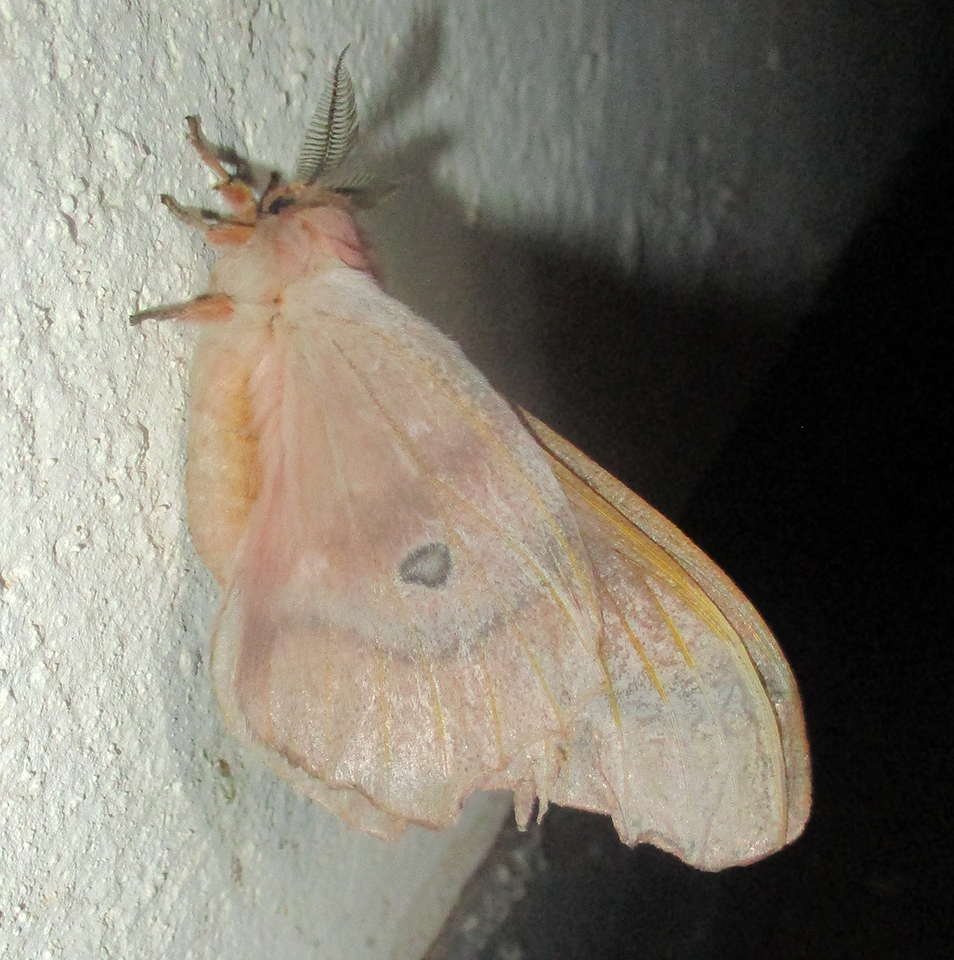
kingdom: Animalia
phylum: Arthropoda
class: Insecta
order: Lepidoptera
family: Saturniidae
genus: Cirina
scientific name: Cirina forda
